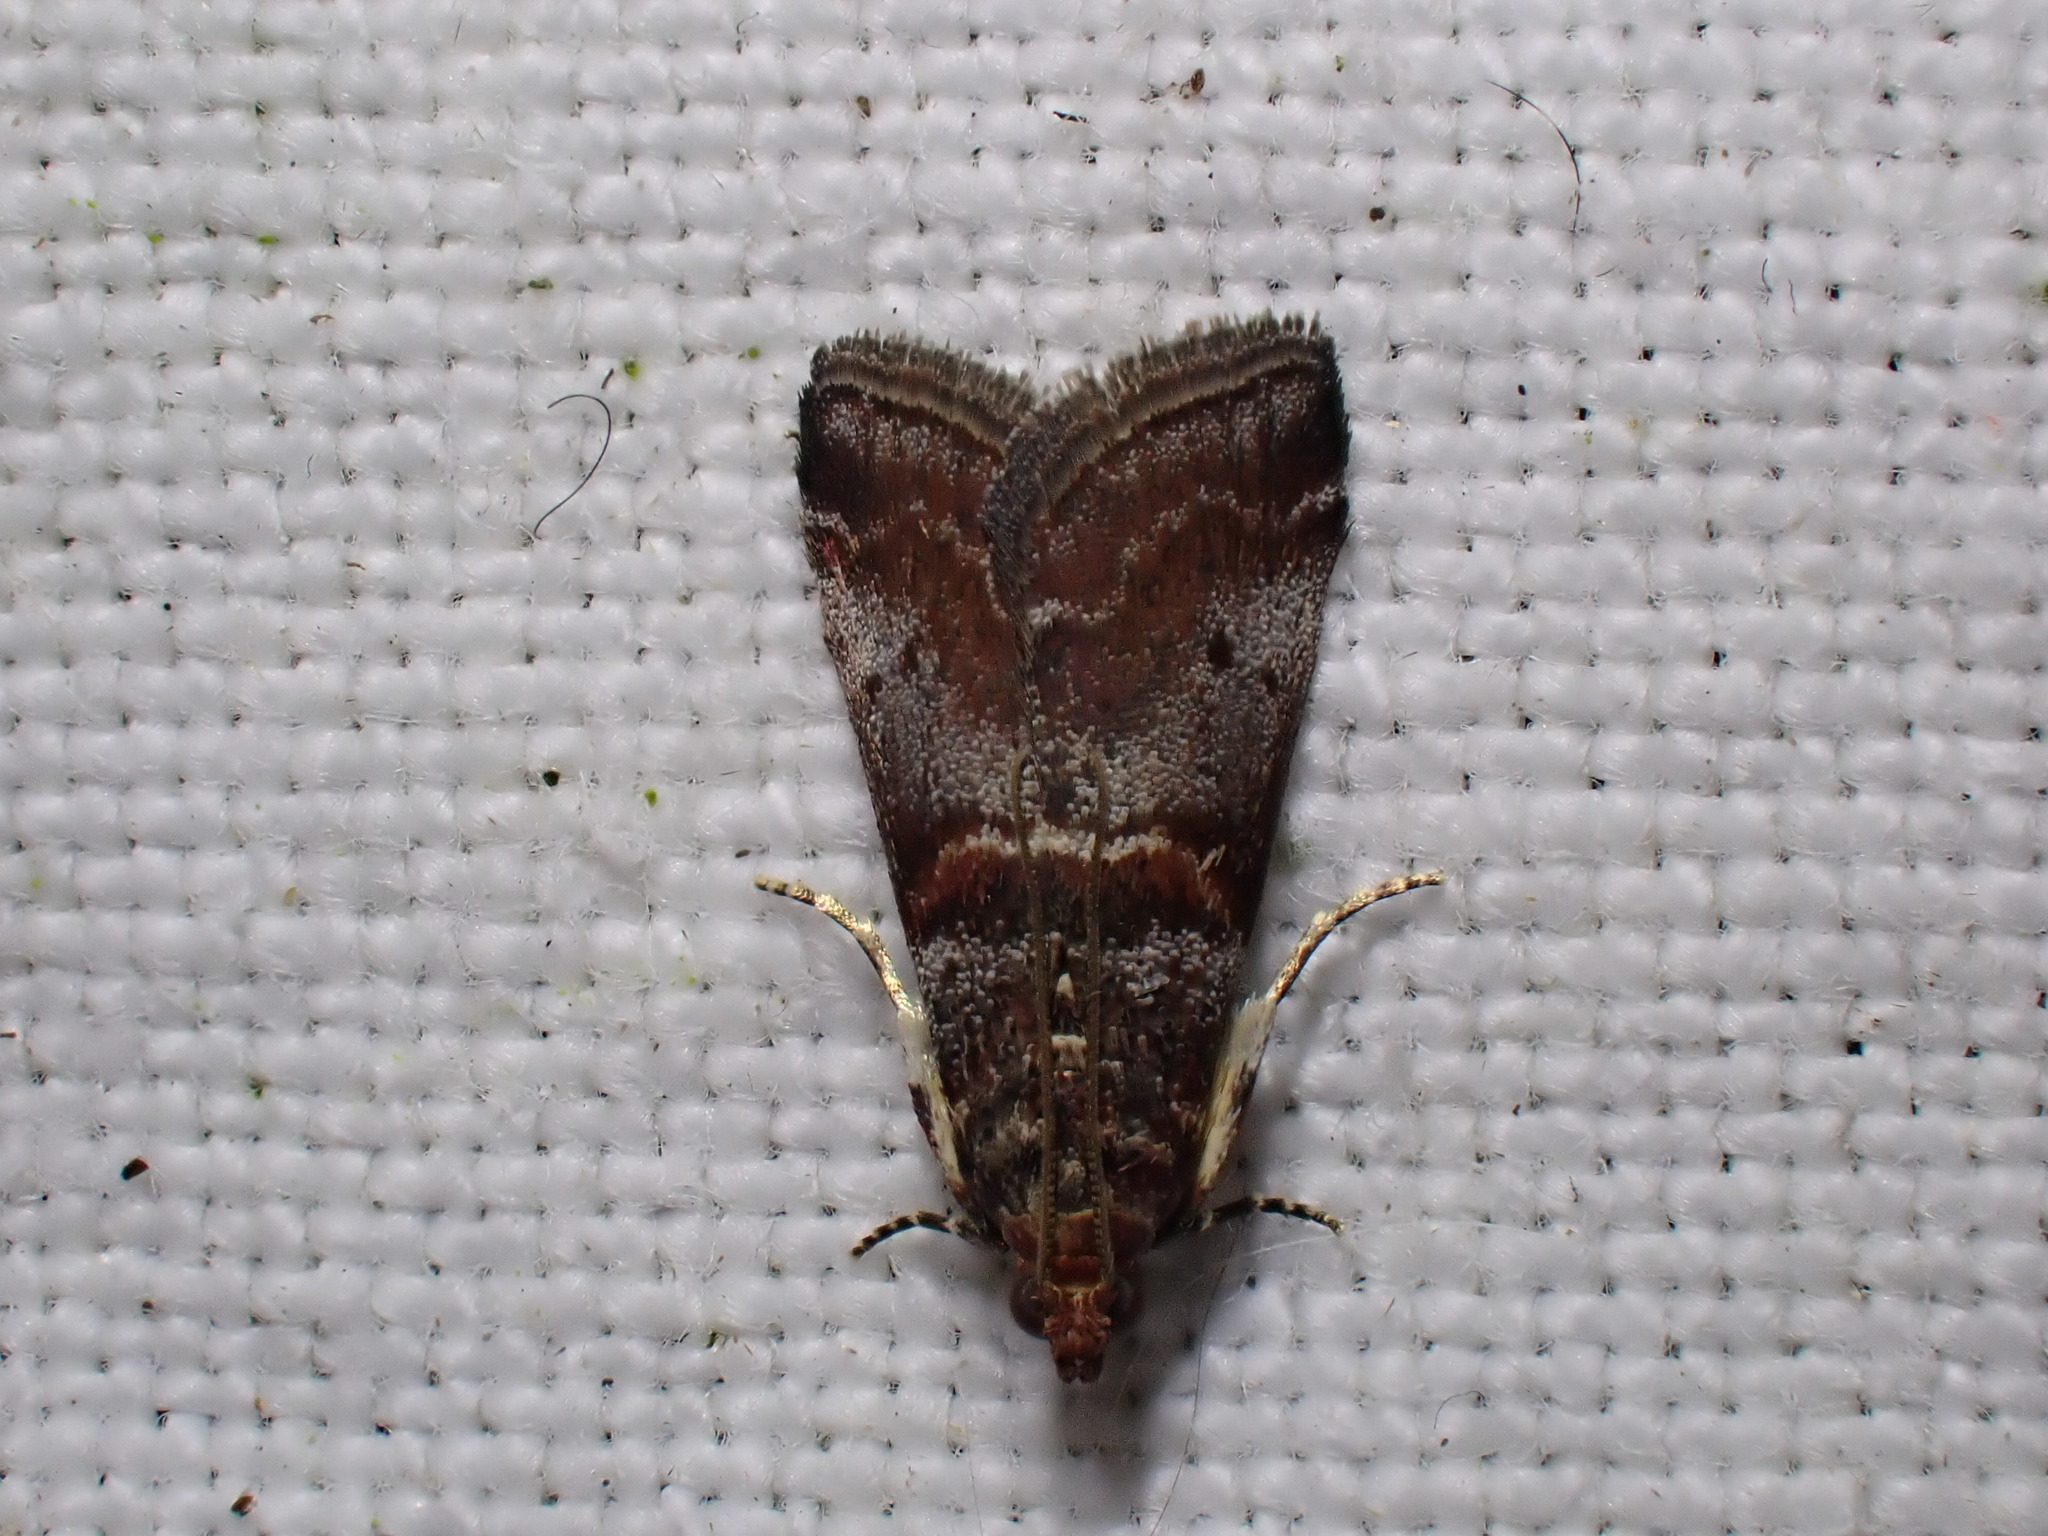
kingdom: Animalia
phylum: Arthropoda
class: Insecta
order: Lepidoptera
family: Pyralidae
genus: Acrobasis
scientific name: Acrobasis advenella
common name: Grey knot-horn
